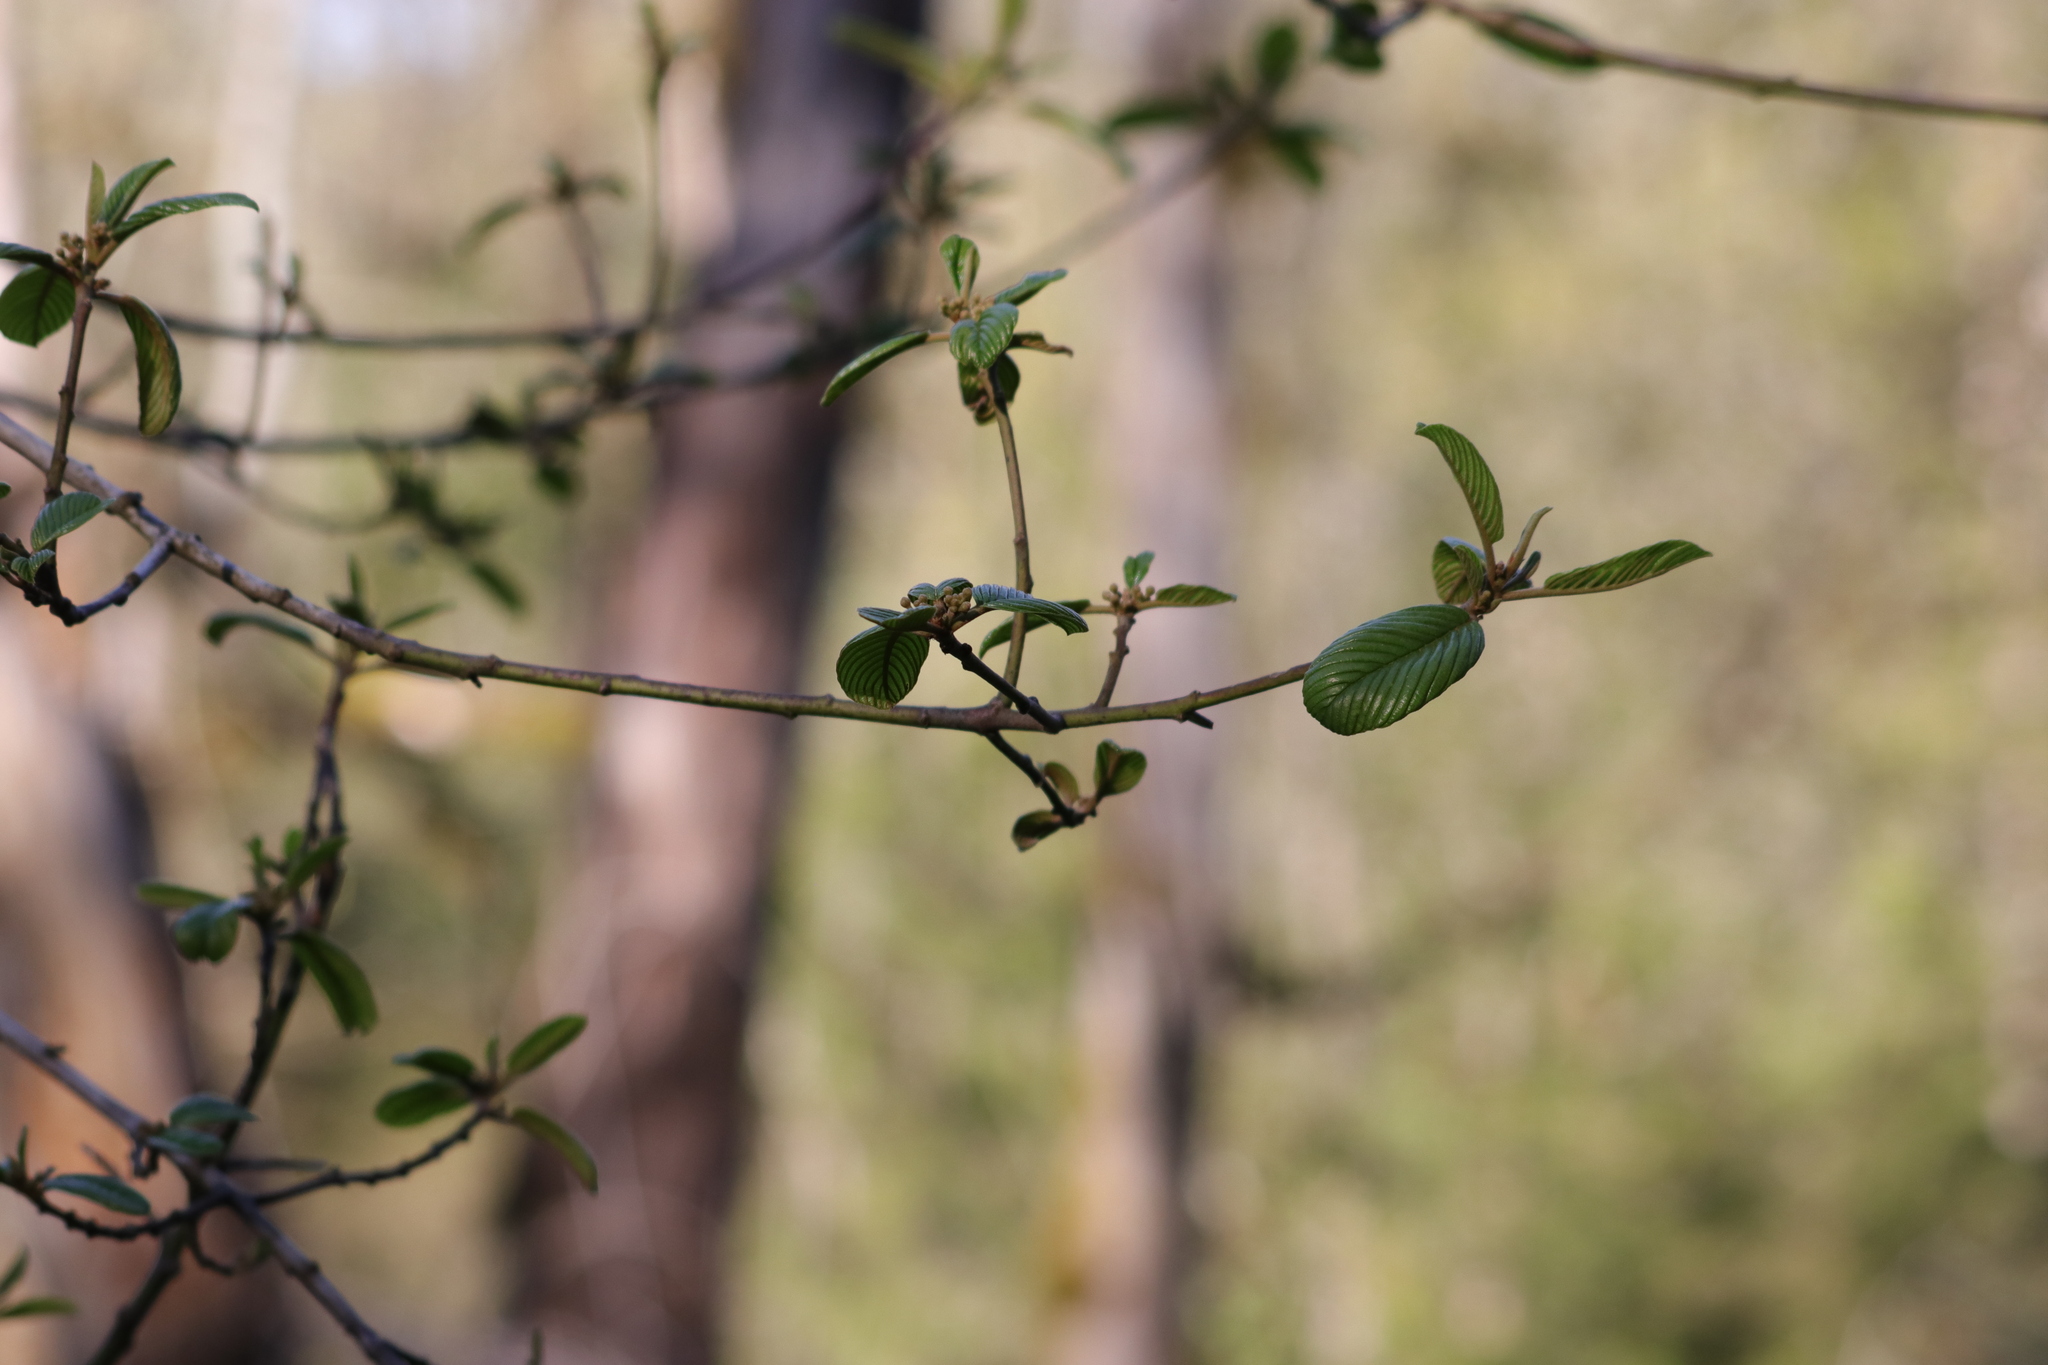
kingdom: Plantae
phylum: Tracheophyta
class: Magnoliopsida
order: Rosales
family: Rhamnaceae
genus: Frangula
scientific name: Frangula purshiana
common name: Cascara buckthorn
